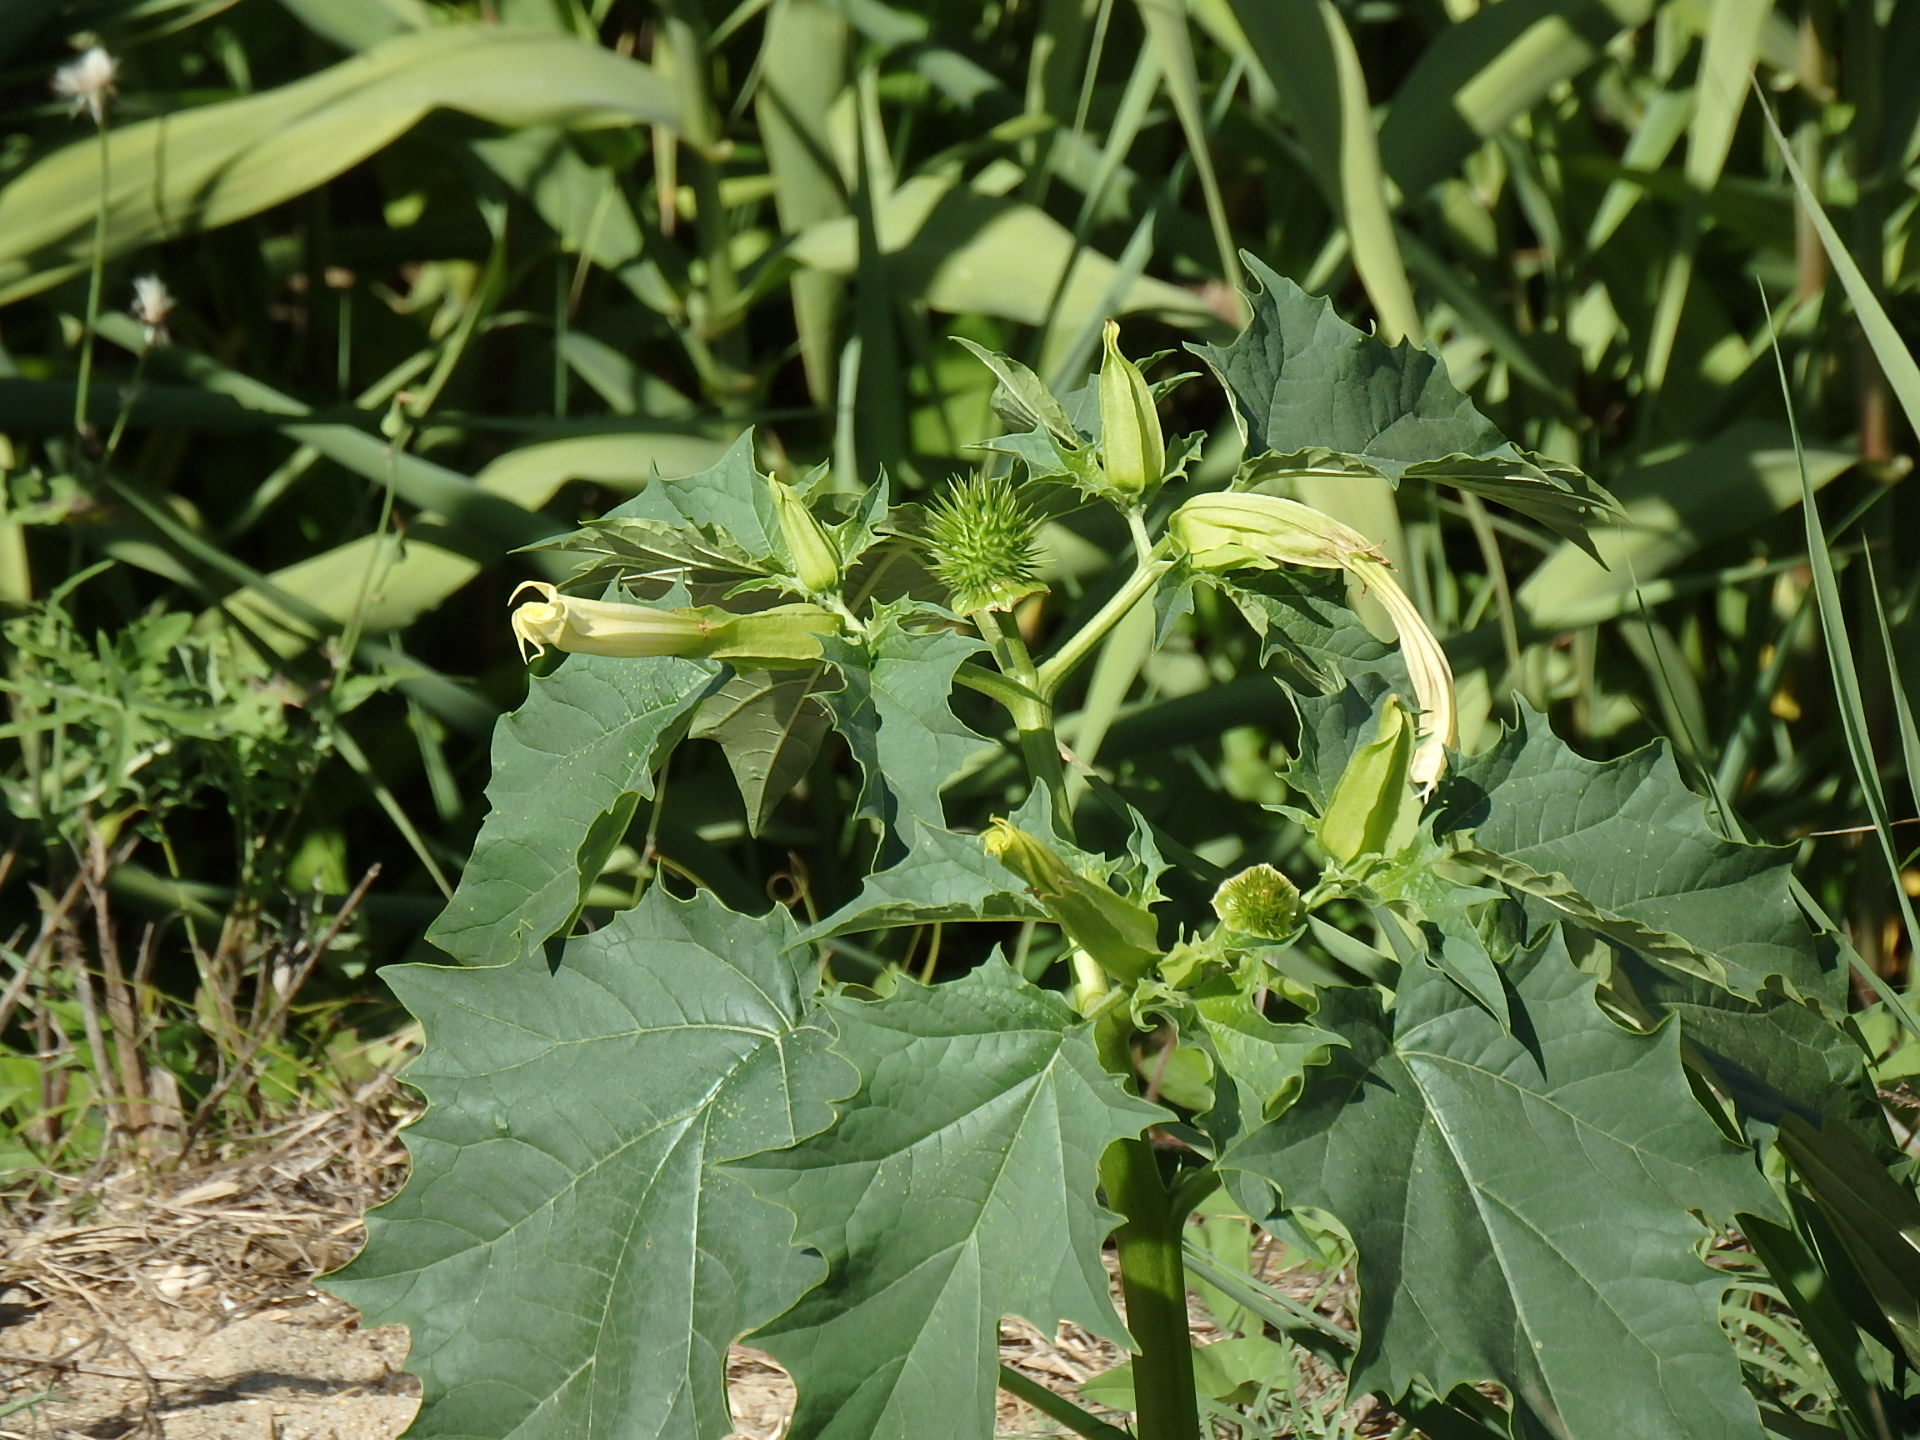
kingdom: Plantae
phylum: Tracheophyta
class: Magnoliopsida
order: Solanales
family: Solanaceae
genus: Datura
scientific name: Datura stramonium
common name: Thorn-apple
